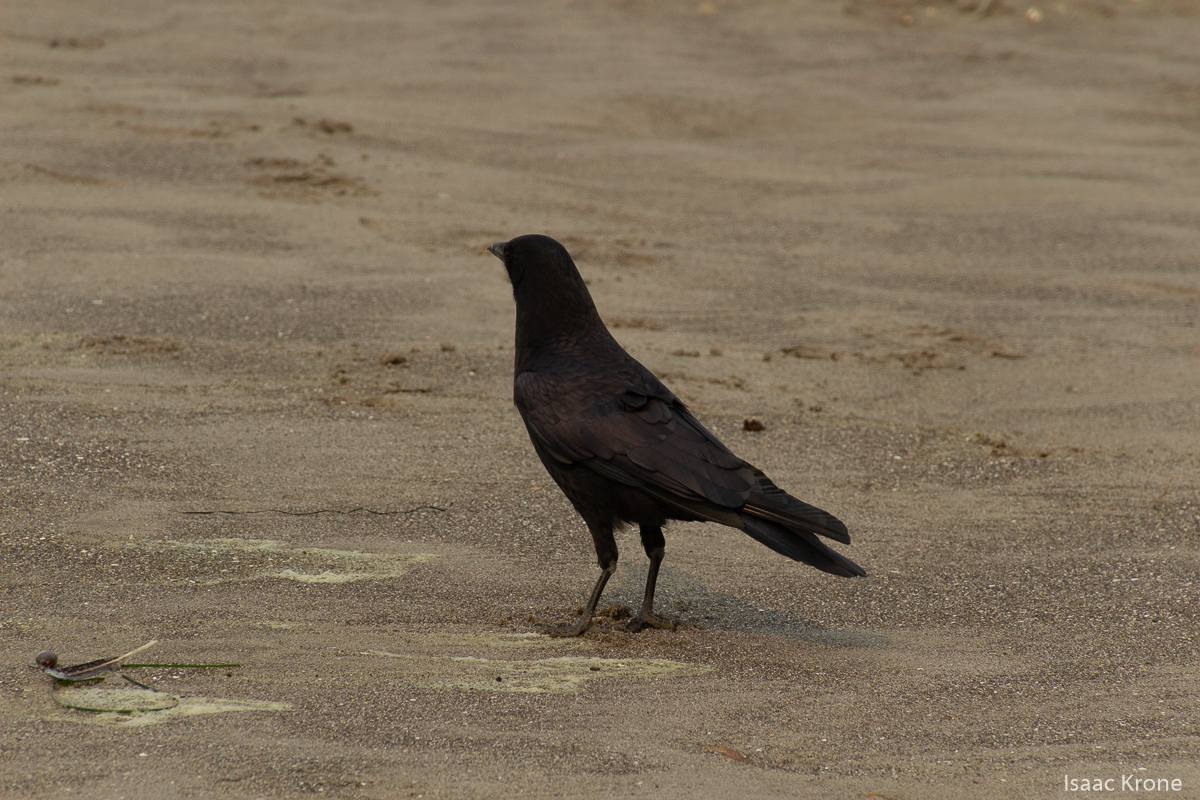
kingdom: Animalia
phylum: Chordata
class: Aves
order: Passeriformes
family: Corvidae
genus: Corvus
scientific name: Corvus brachyrhynchos
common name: American crow
